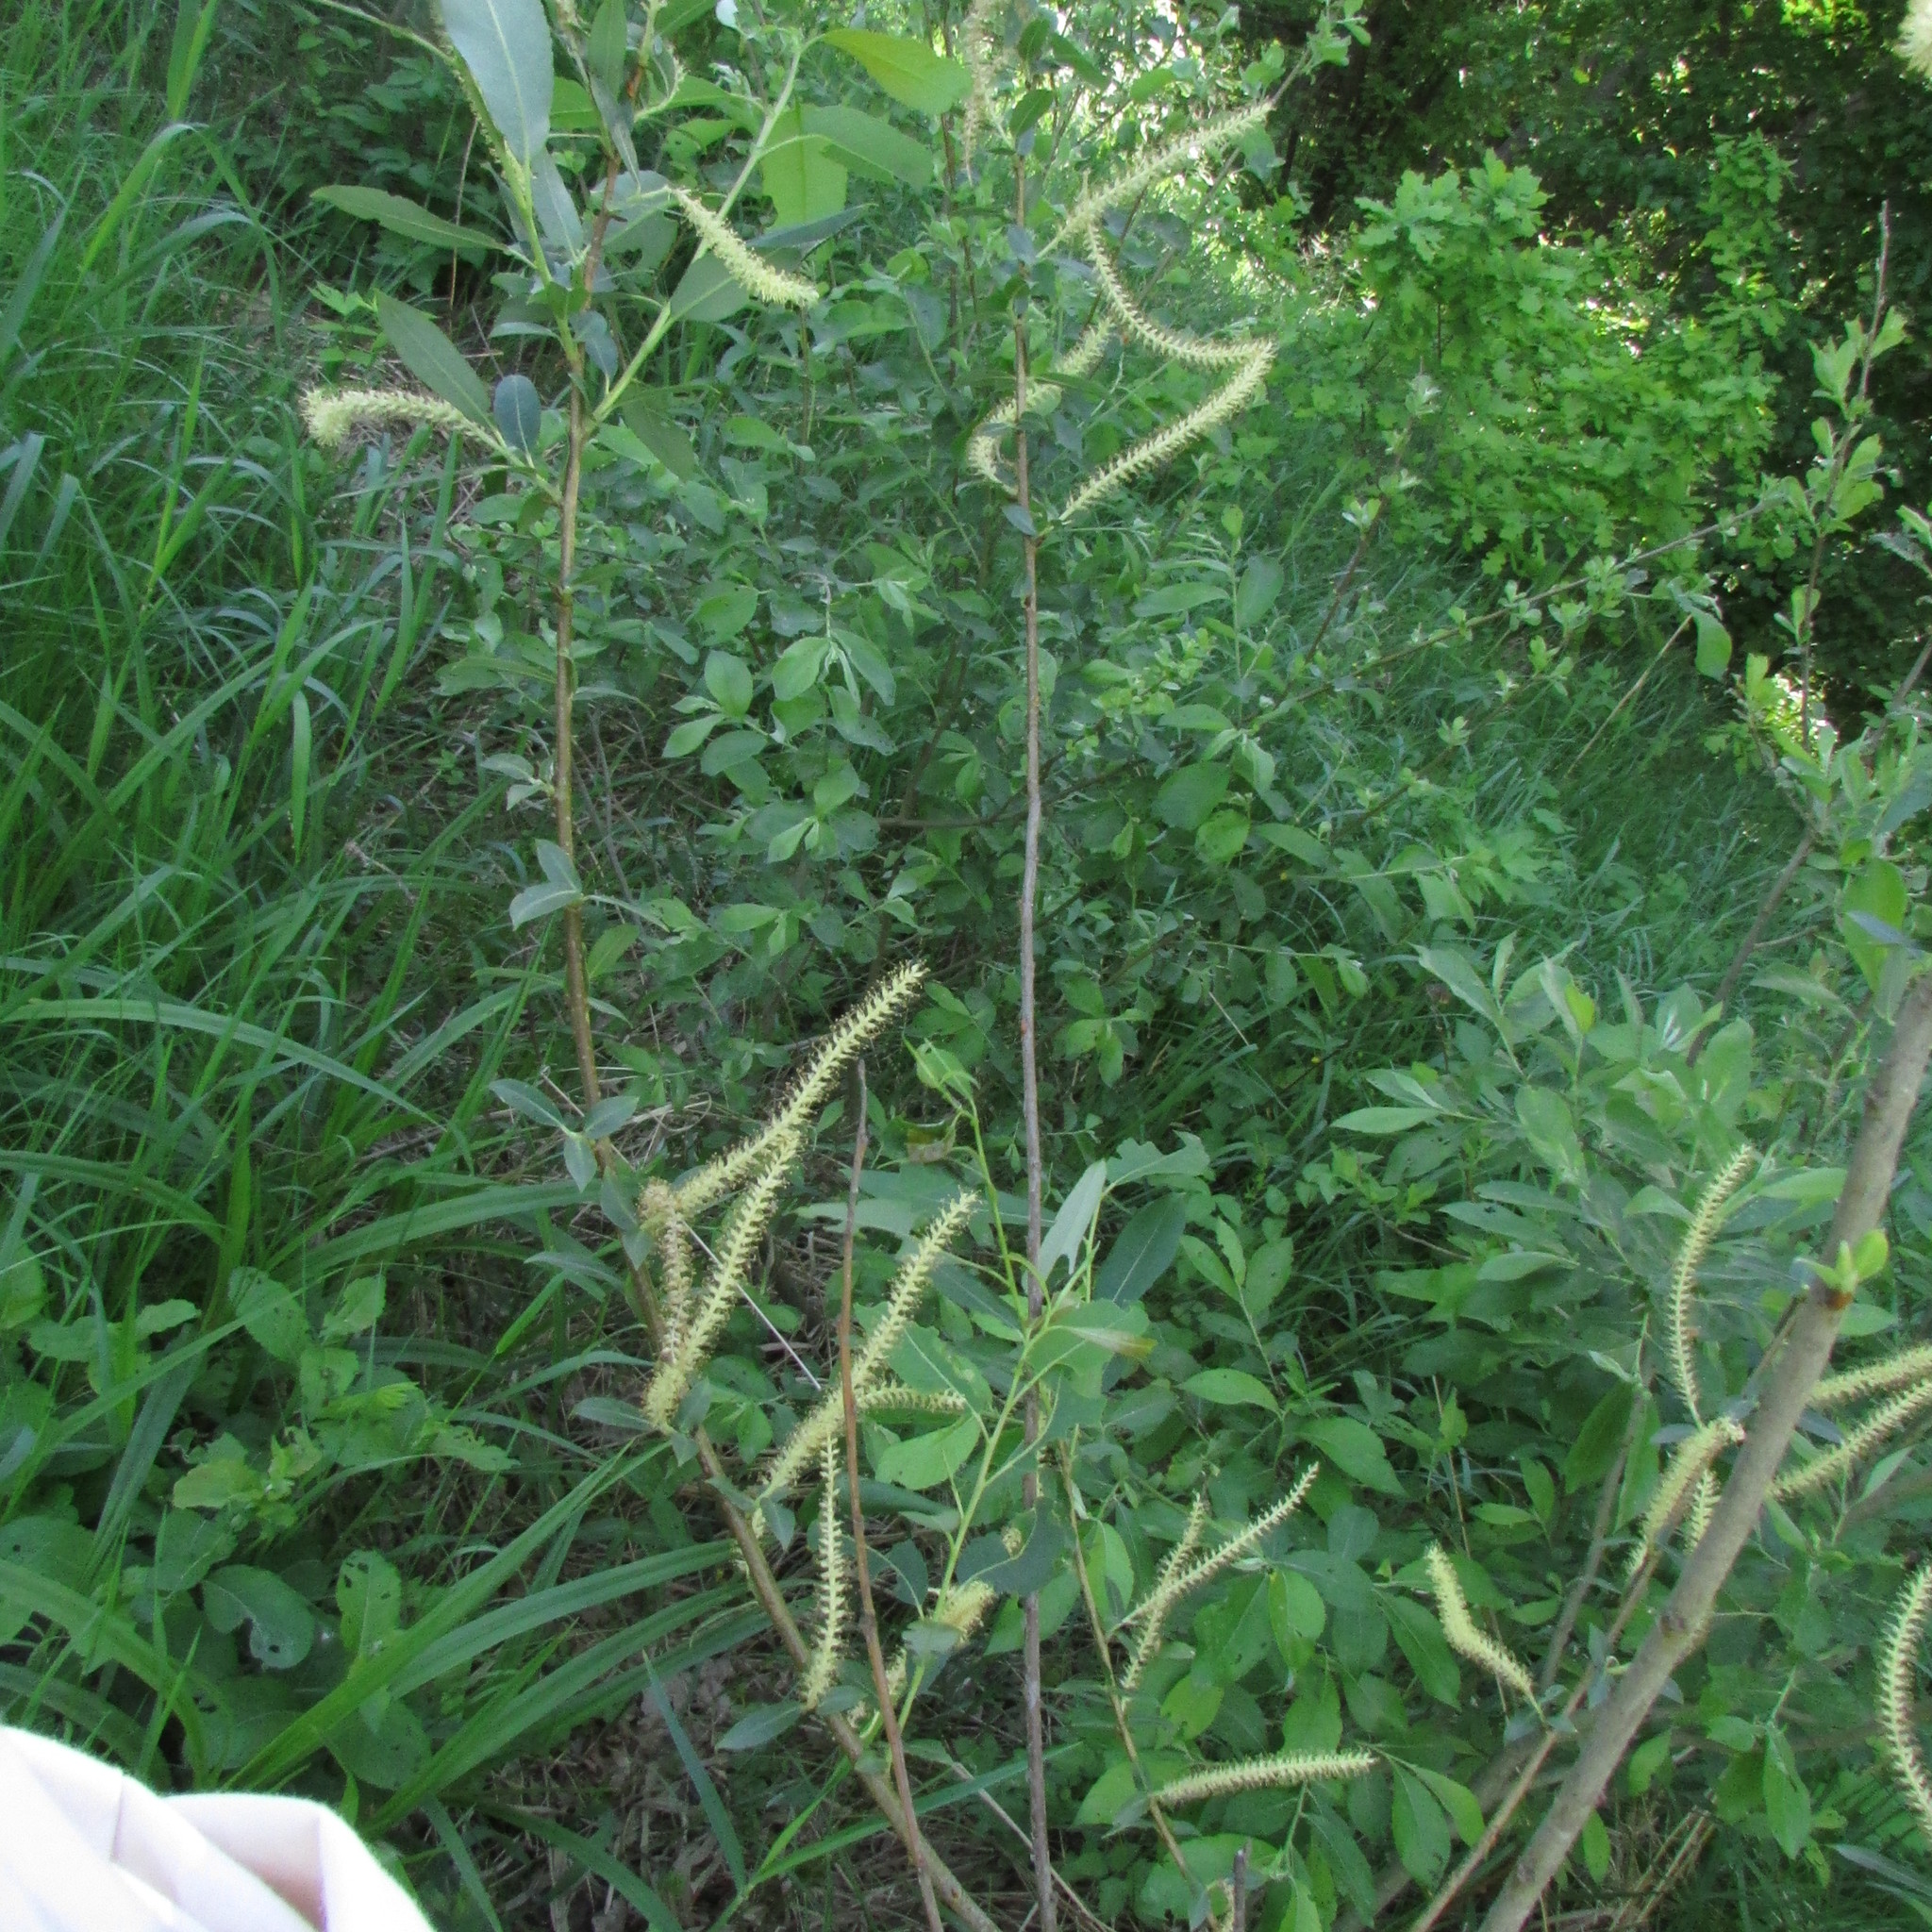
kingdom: Plantae
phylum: Tracheophyta
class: Magnoliopsida
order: Malpighiales
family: Salicaceae
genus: Salix
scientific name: Salix triandra
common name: Almond willow
